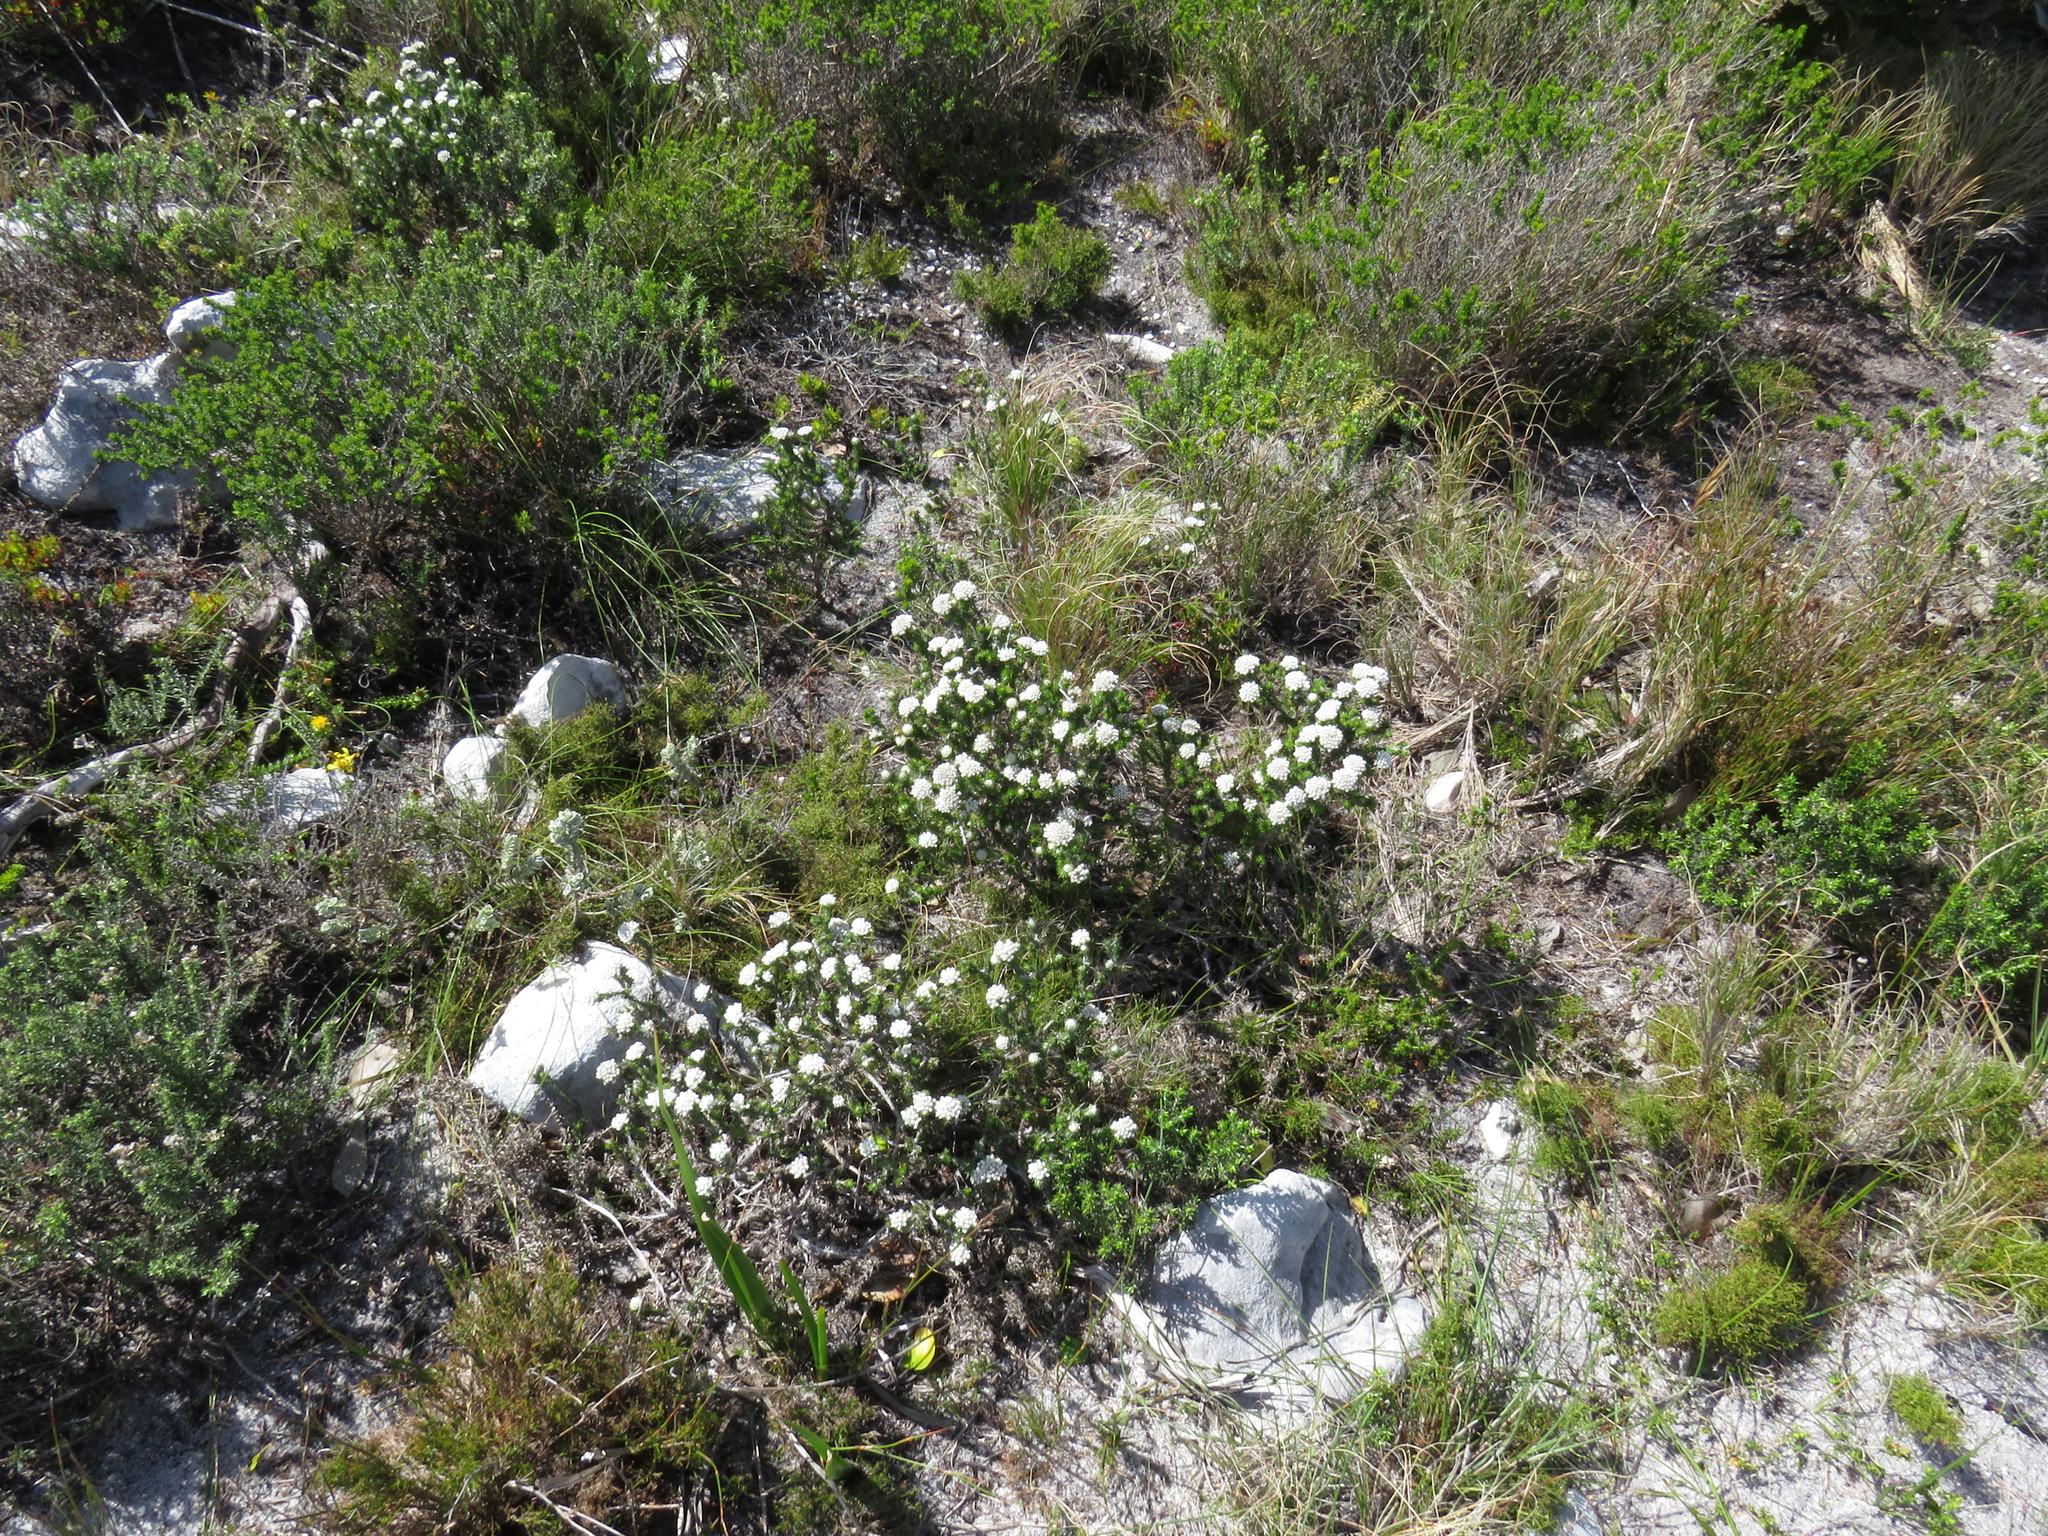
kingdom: Plantae
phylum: Tracheophyta
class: Magnoliopsida
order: Asterales
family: Asteraceae
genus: Metalasia
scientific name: Metalasia compacta
